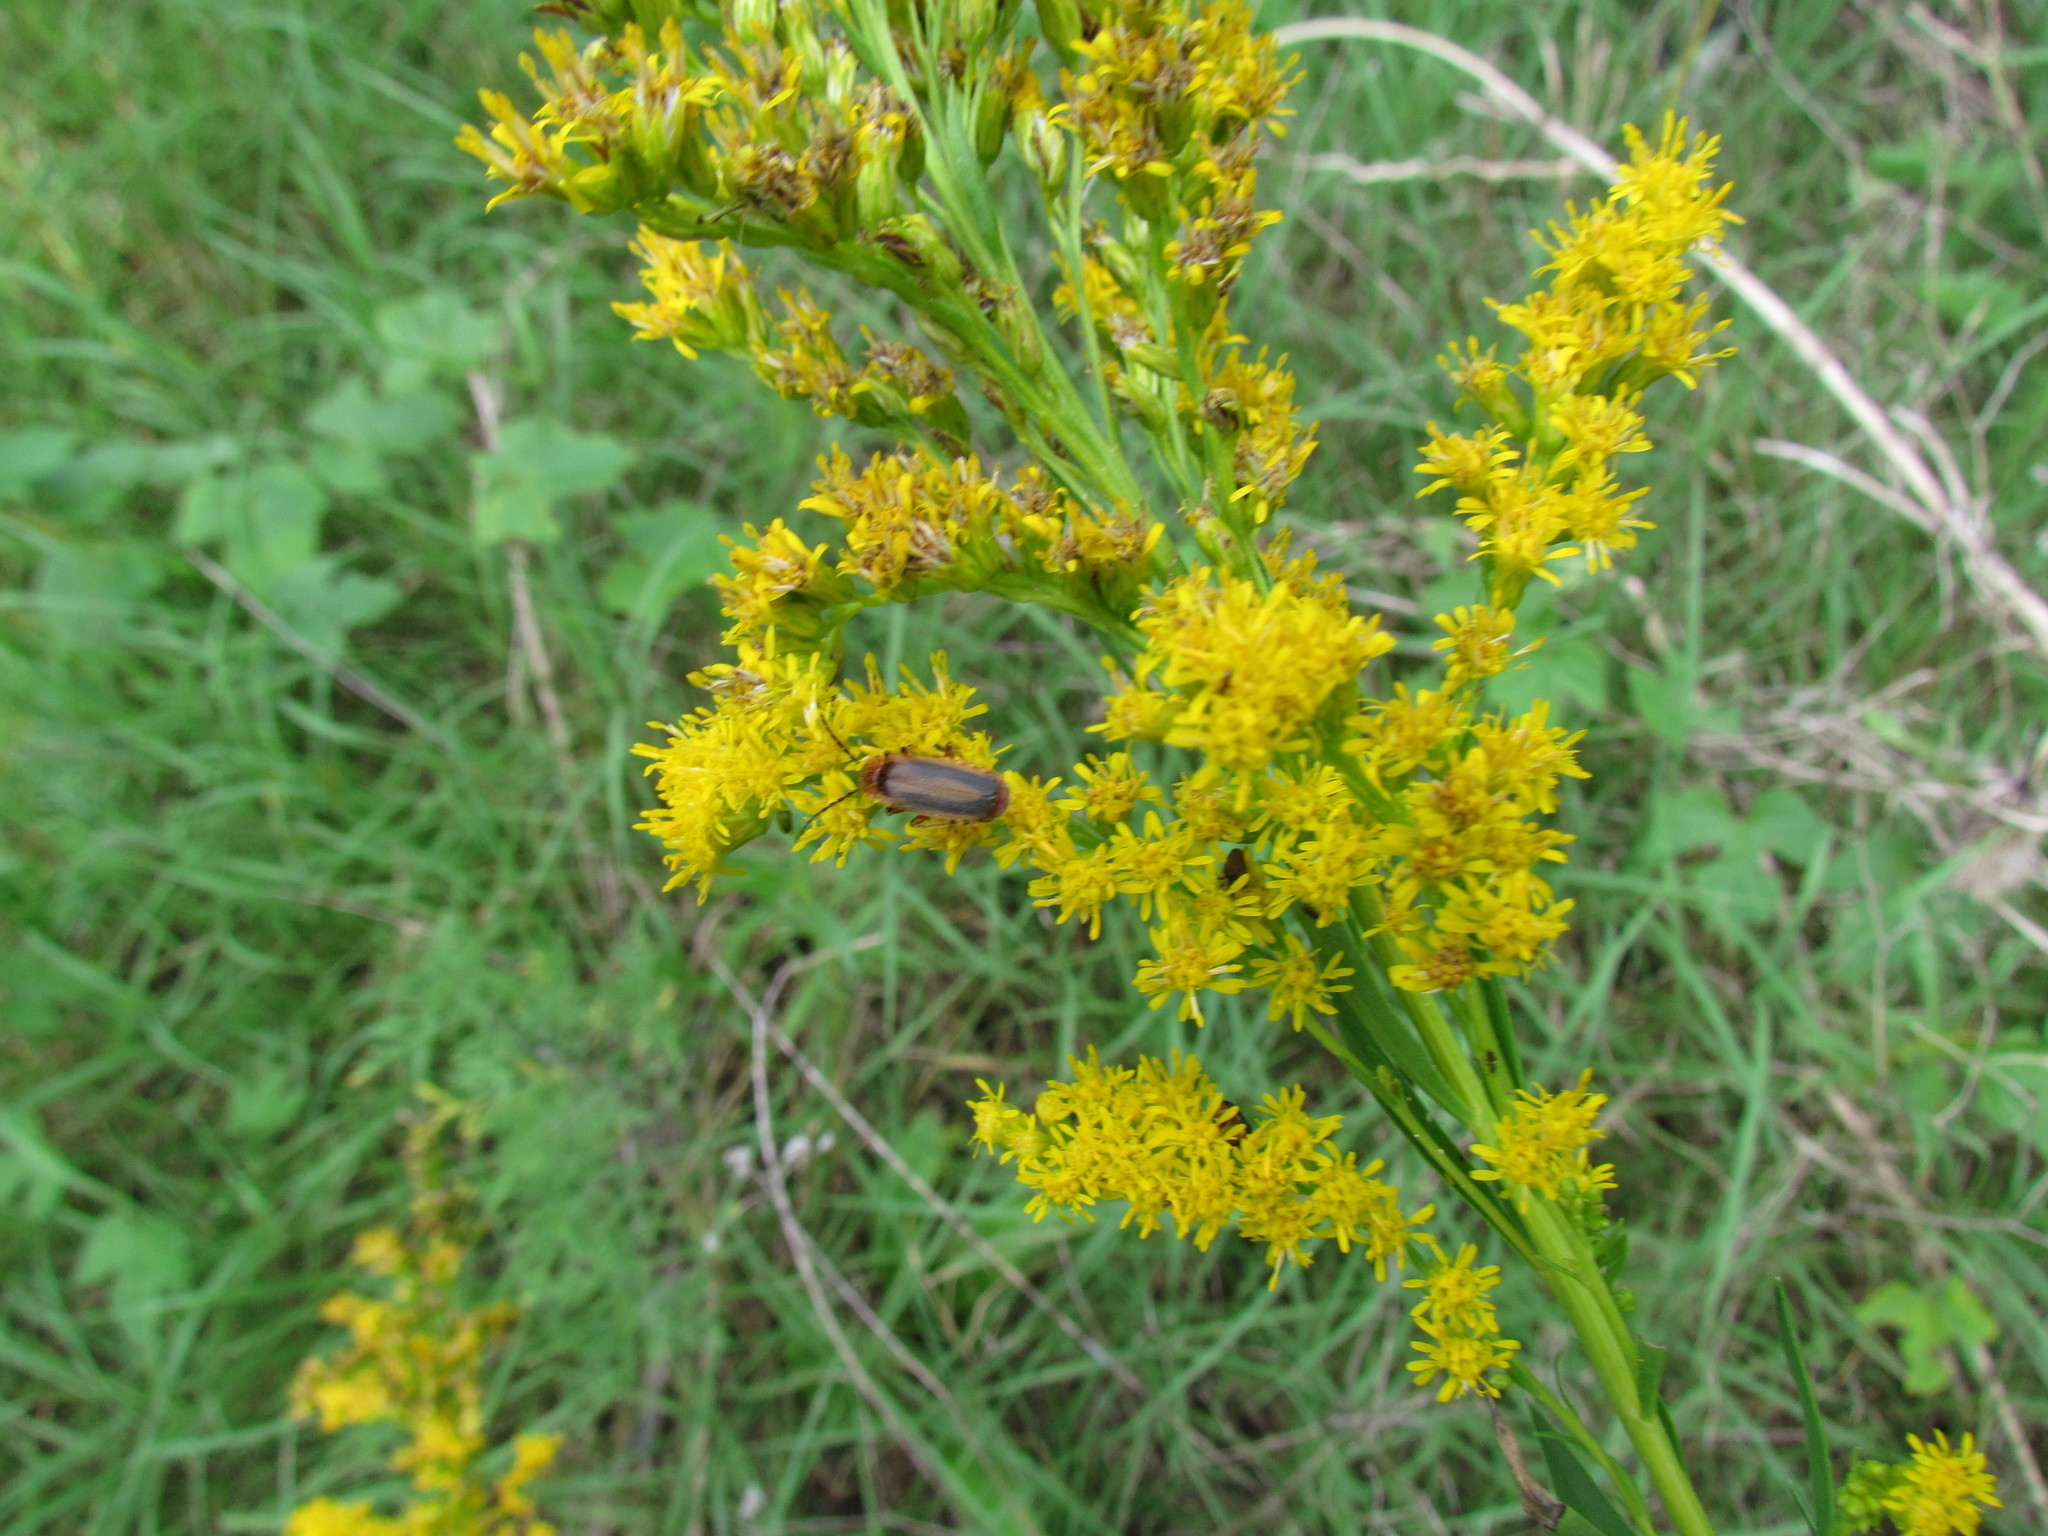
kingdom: Animalia
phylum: Arthropoda
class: Insecta
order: Coleoptera
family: Cantharidae
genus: Discodon
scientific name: Discodon
